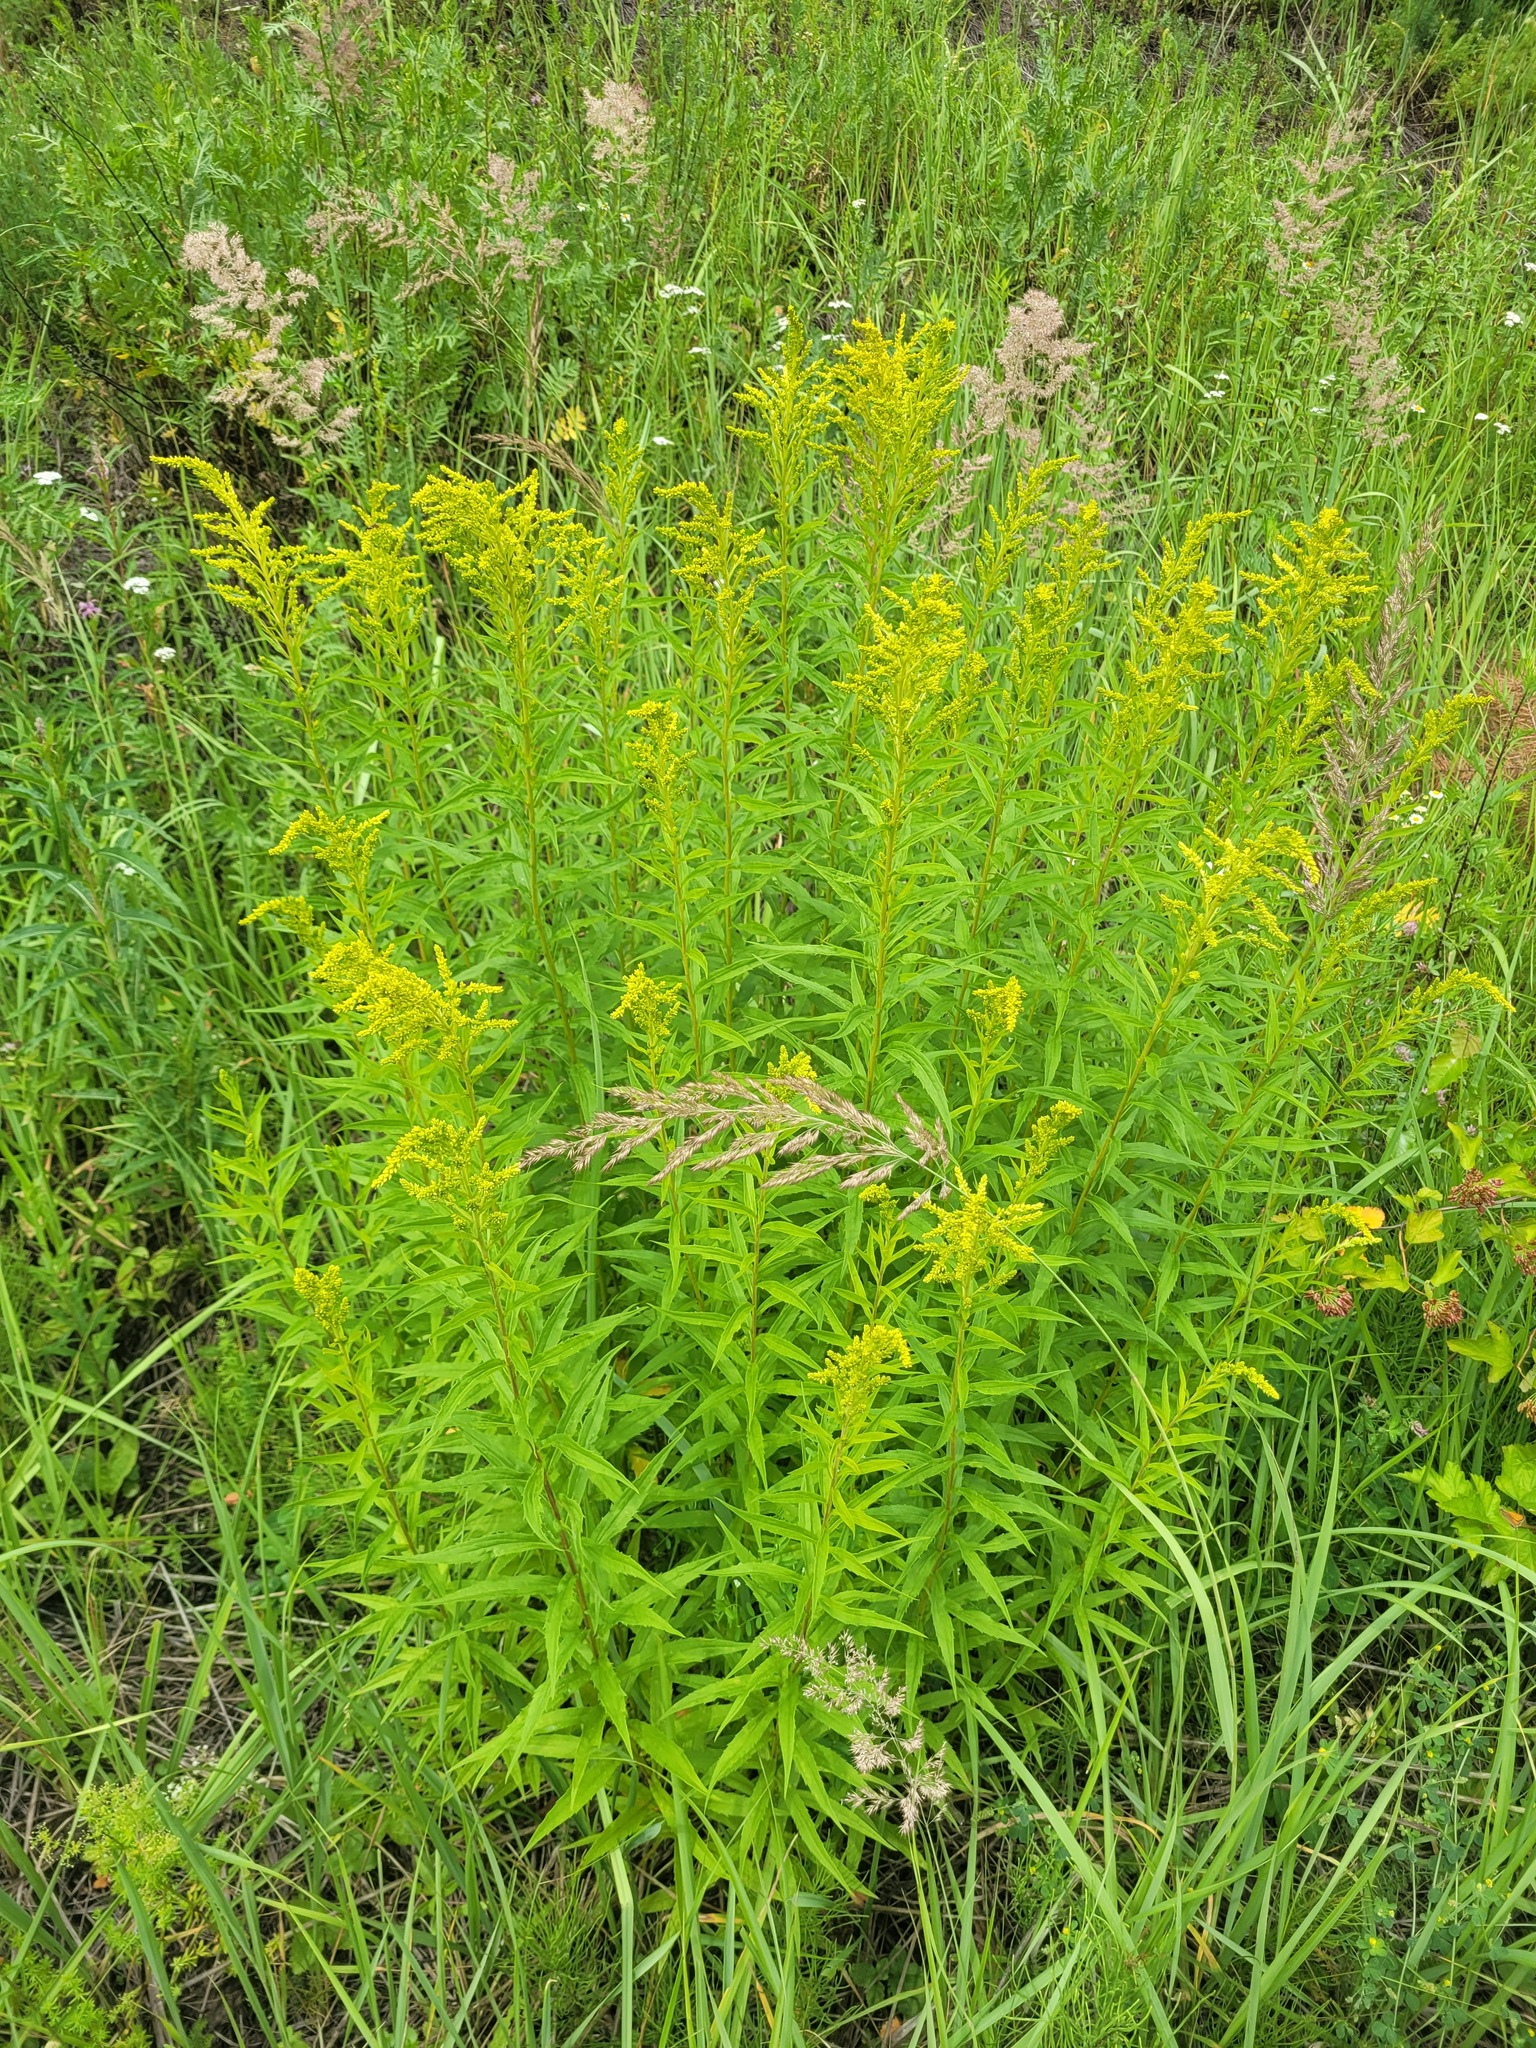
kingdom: Plantae
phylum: Tracheophyta
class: Magnoliopsida
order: Asterales
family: Asteraceae
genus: Solidago
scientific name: Solidago canadensis
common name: Canada goldenrod
